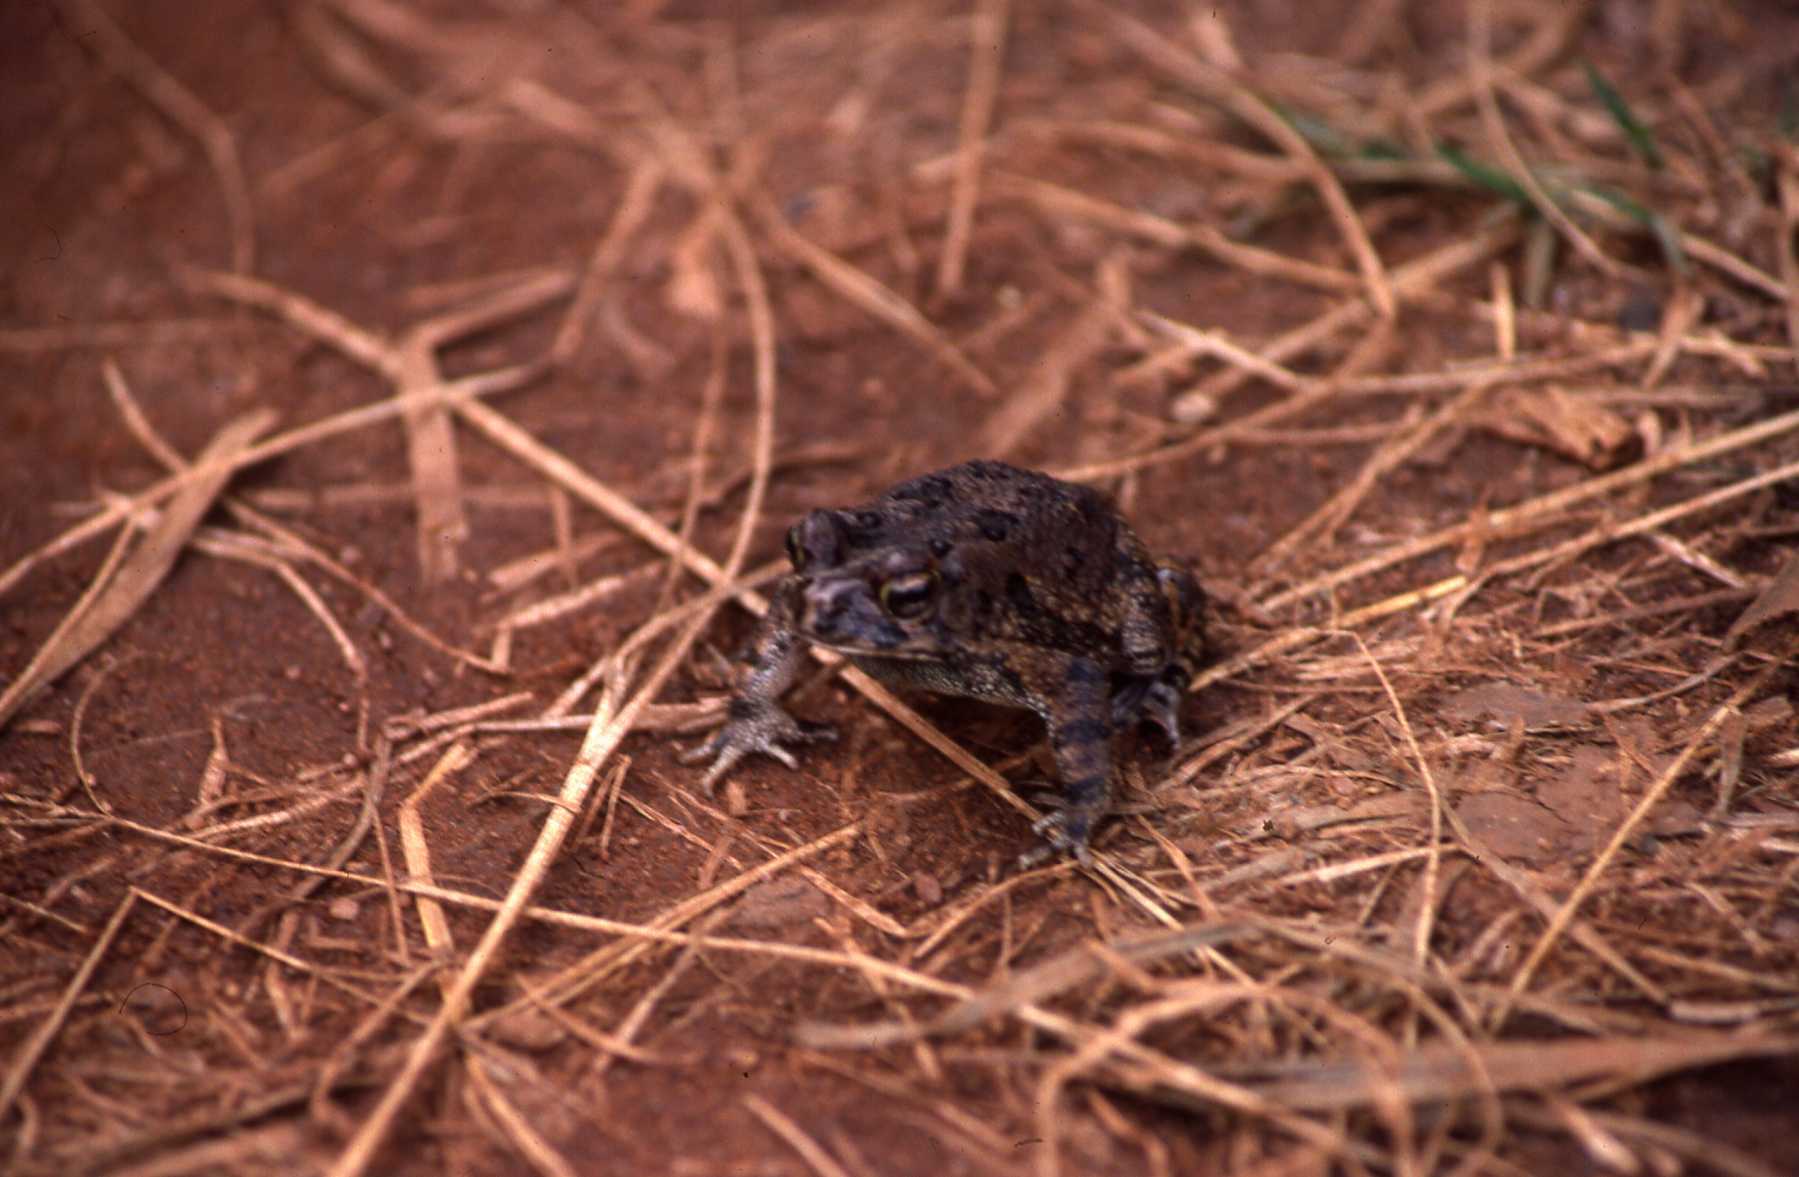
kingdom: Animalia
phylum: Chordata
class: Amphibia
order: Anura
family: Bufonidae
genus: Sclerophrys
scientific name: Sclerophrys pusilla
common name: Merten's striped toad
